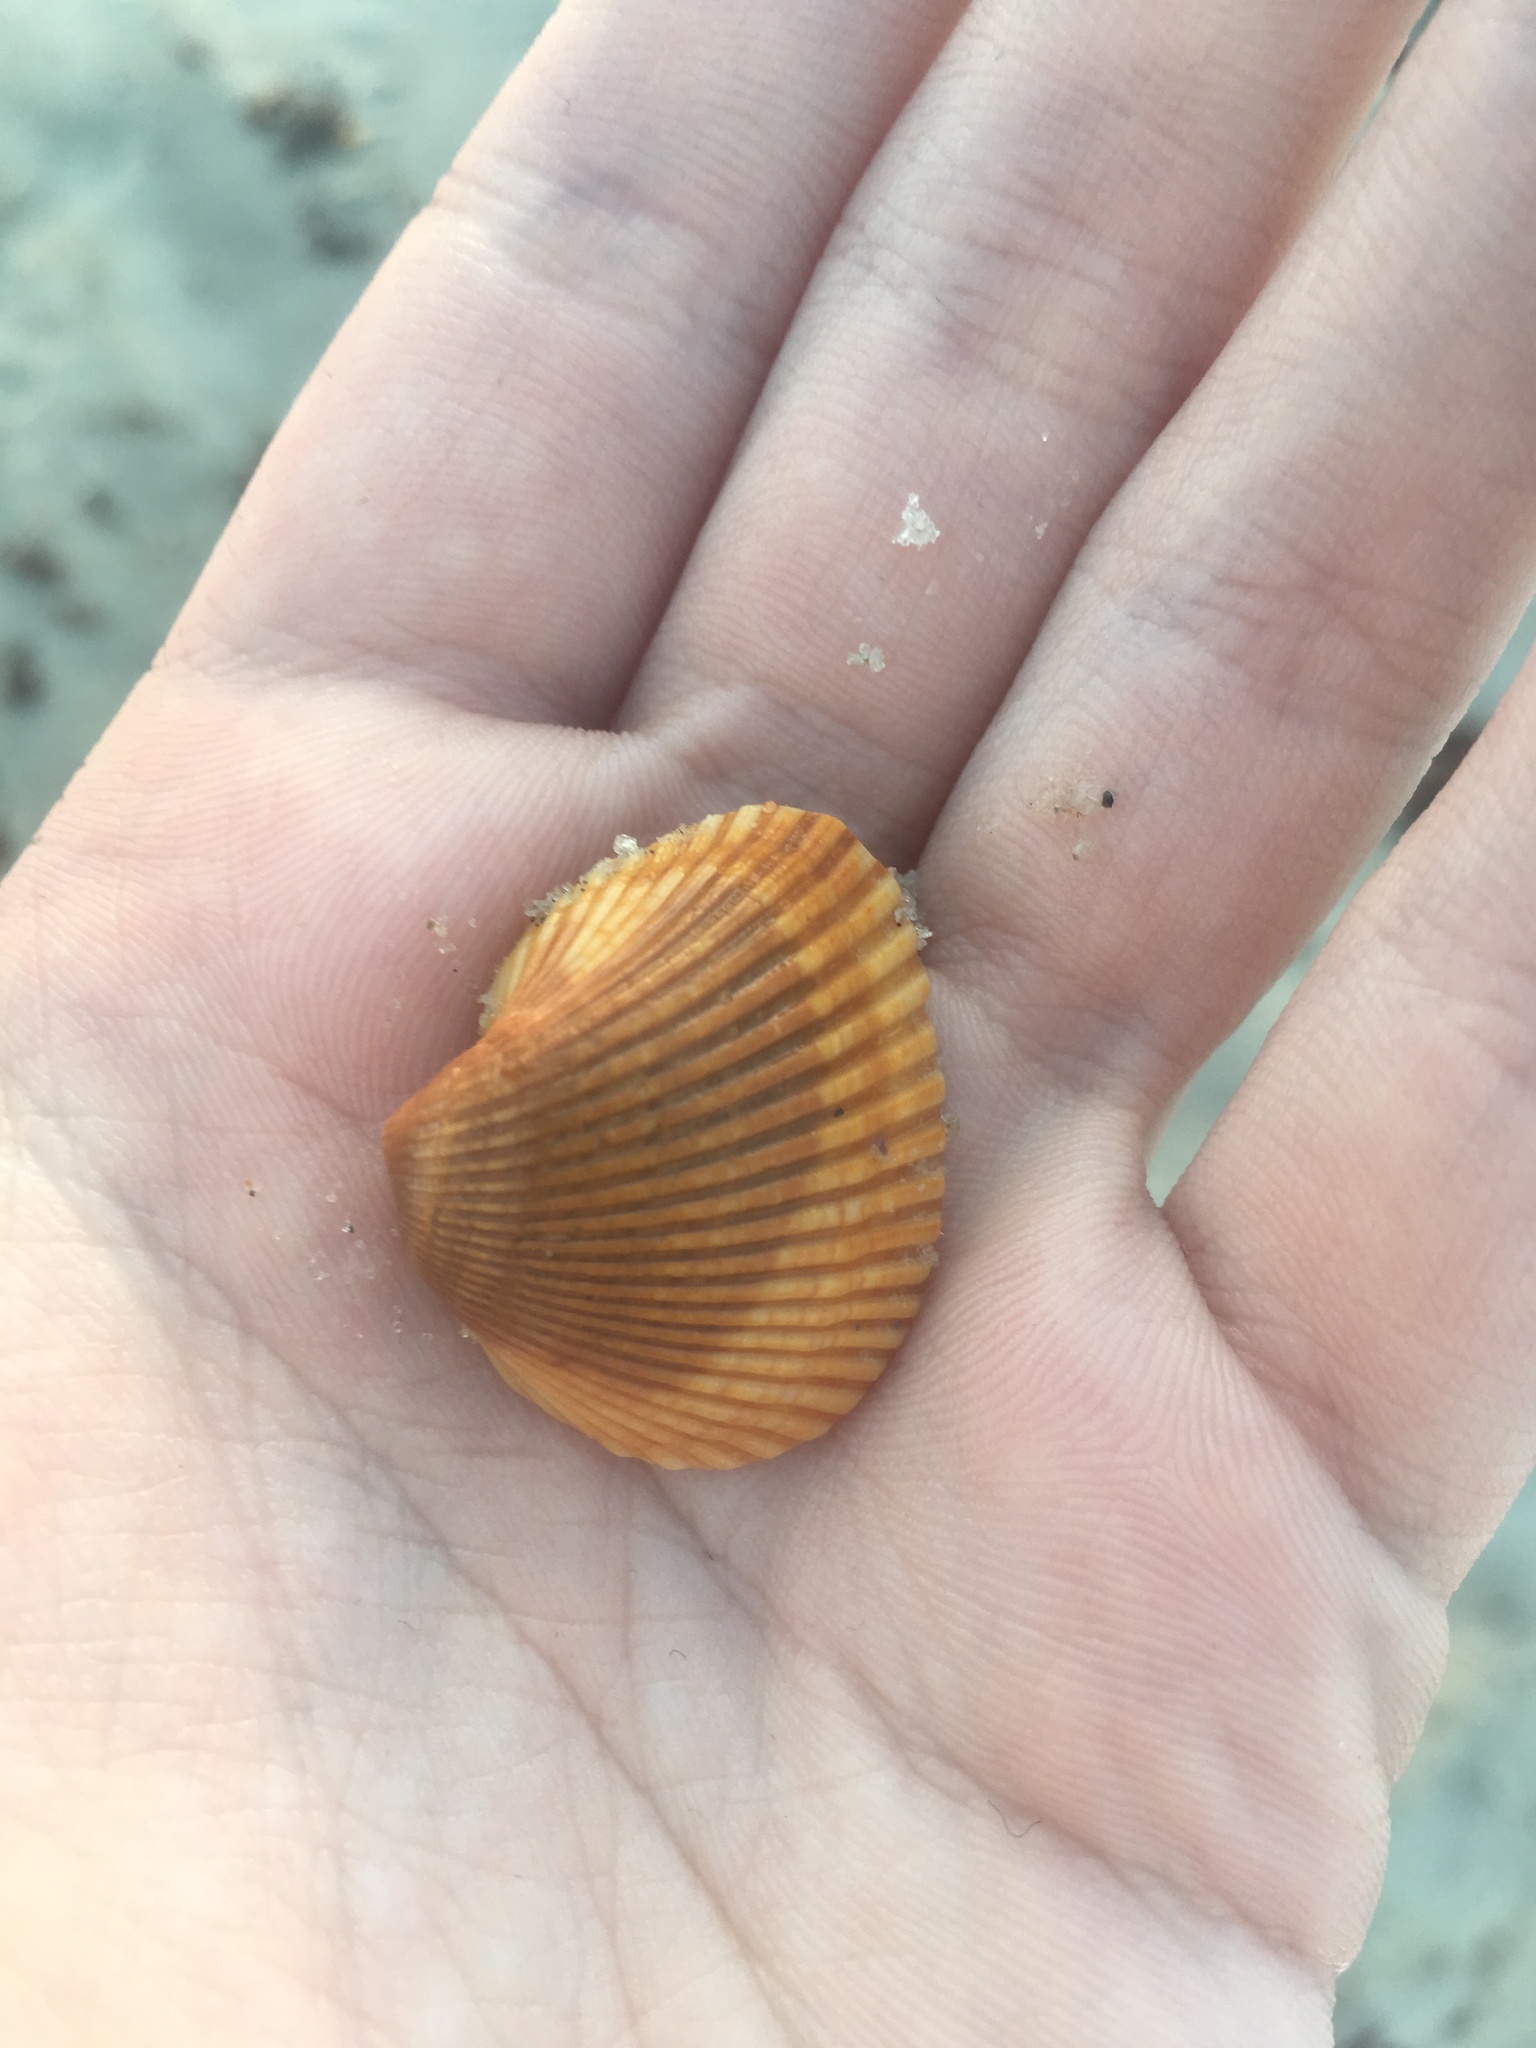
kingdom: Animalia
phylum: Mollusca
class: Bivalvia
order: Arcida
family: Noetiidae
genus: Noetia
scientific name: Noetia ponderosa
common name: Ponderous ark
